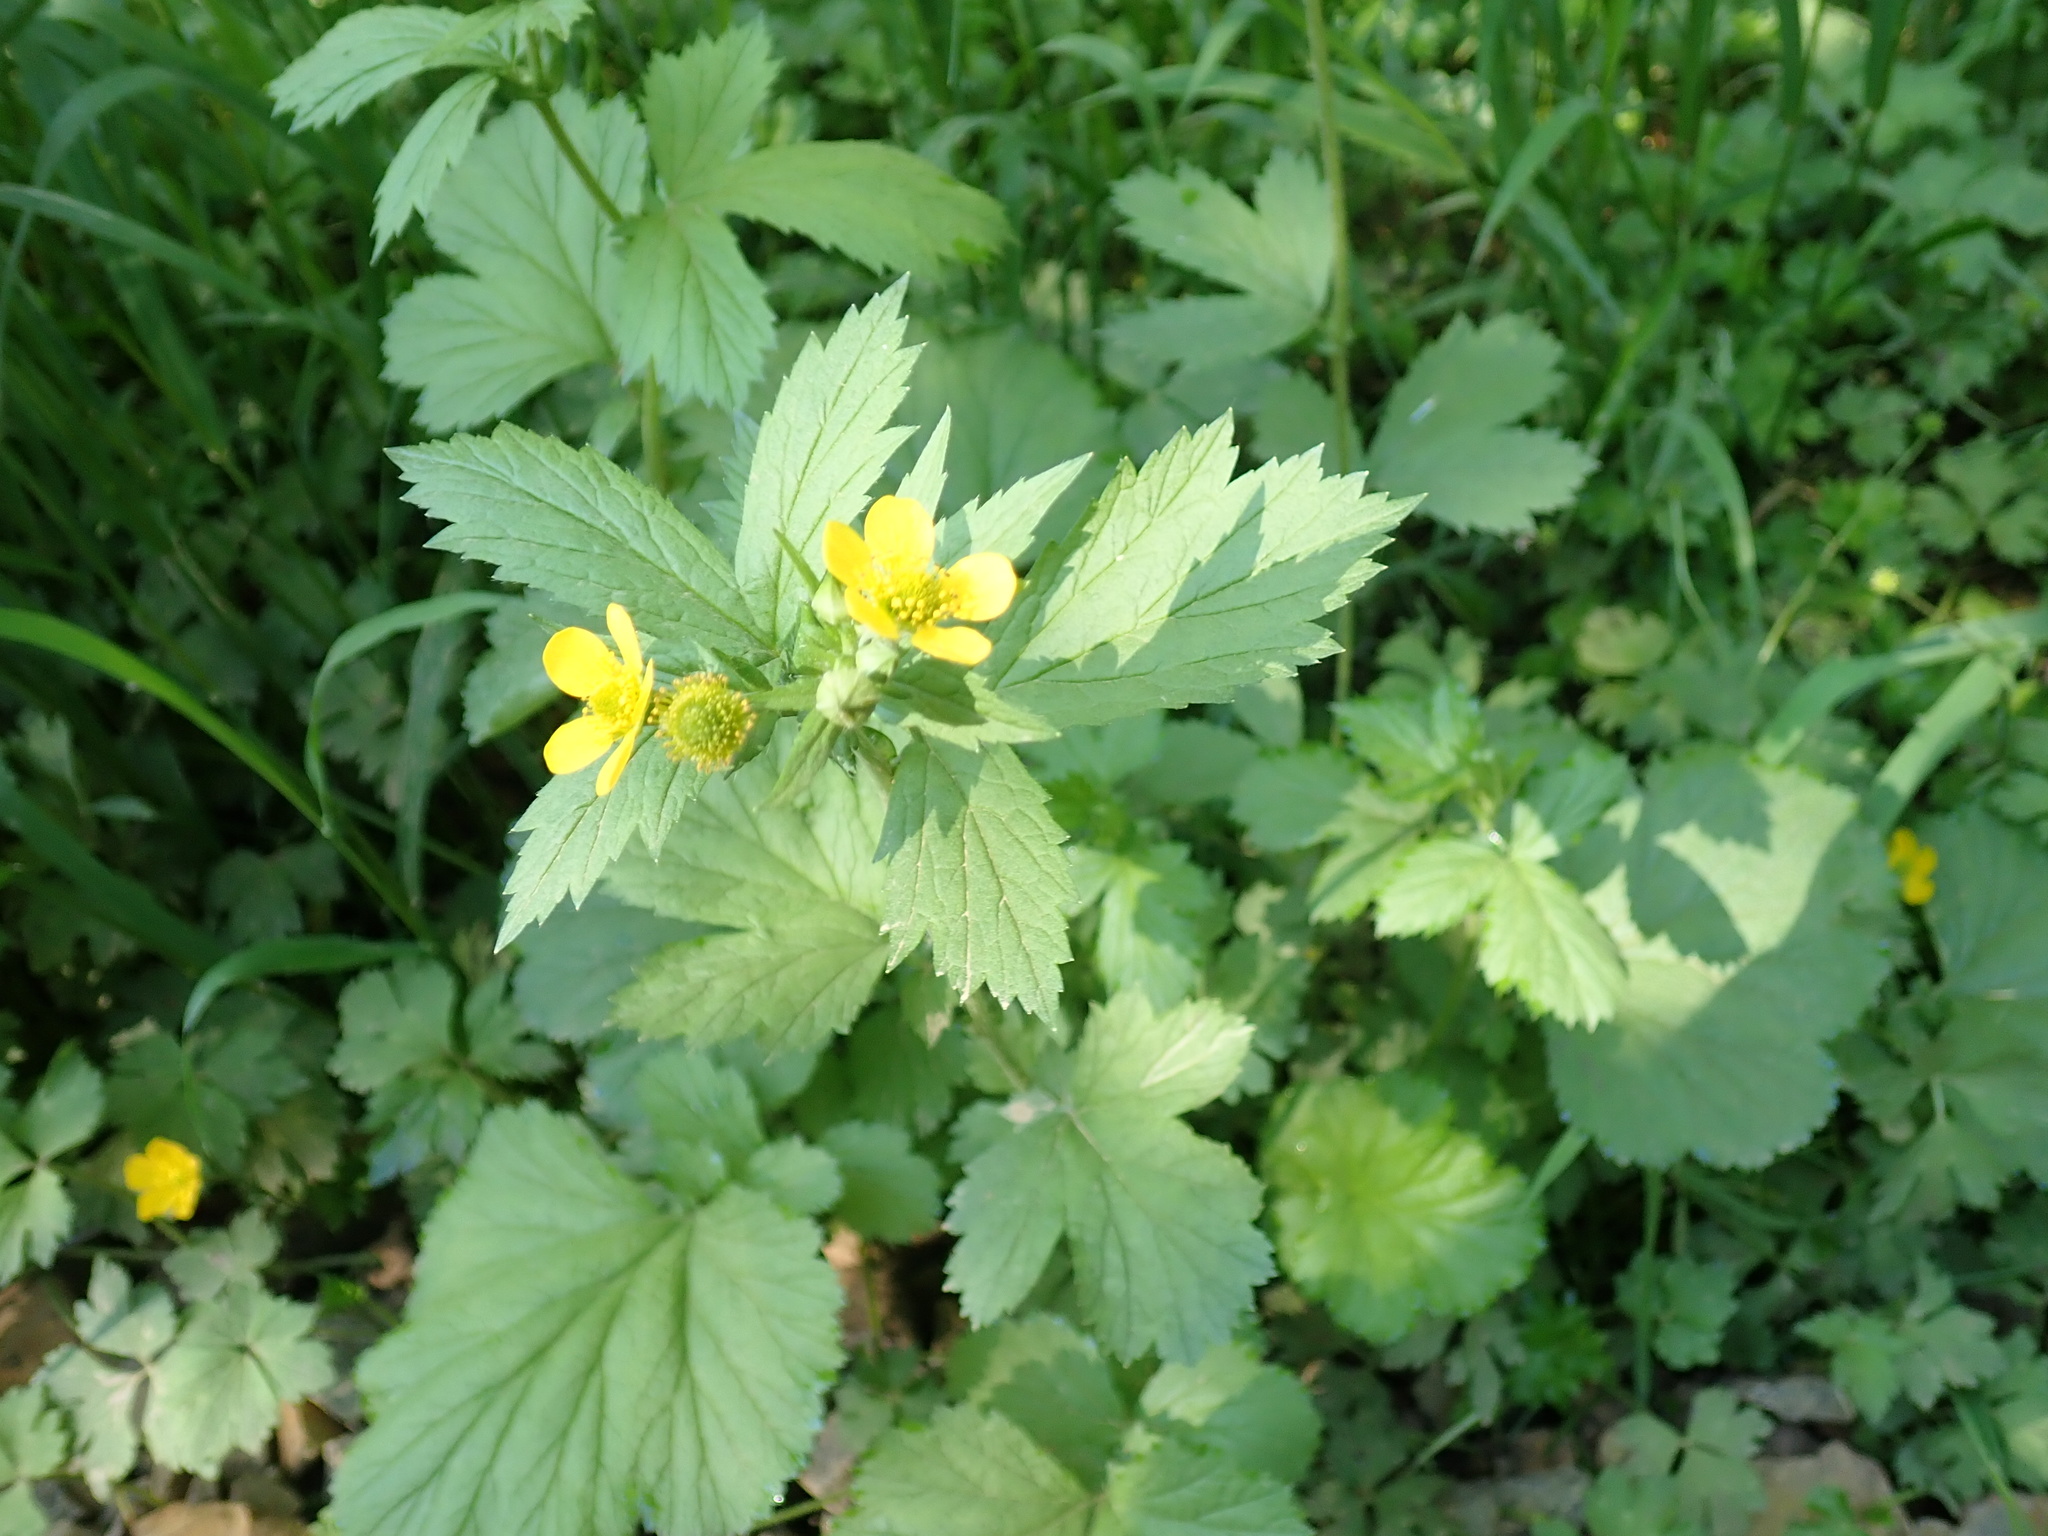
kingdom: Plantae
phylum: Tracheophyta
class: Magnoliopsida
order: Rosales
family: Rosaceae
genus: Geum
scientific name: Geum macrophyllum
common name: Large-leaved avens
